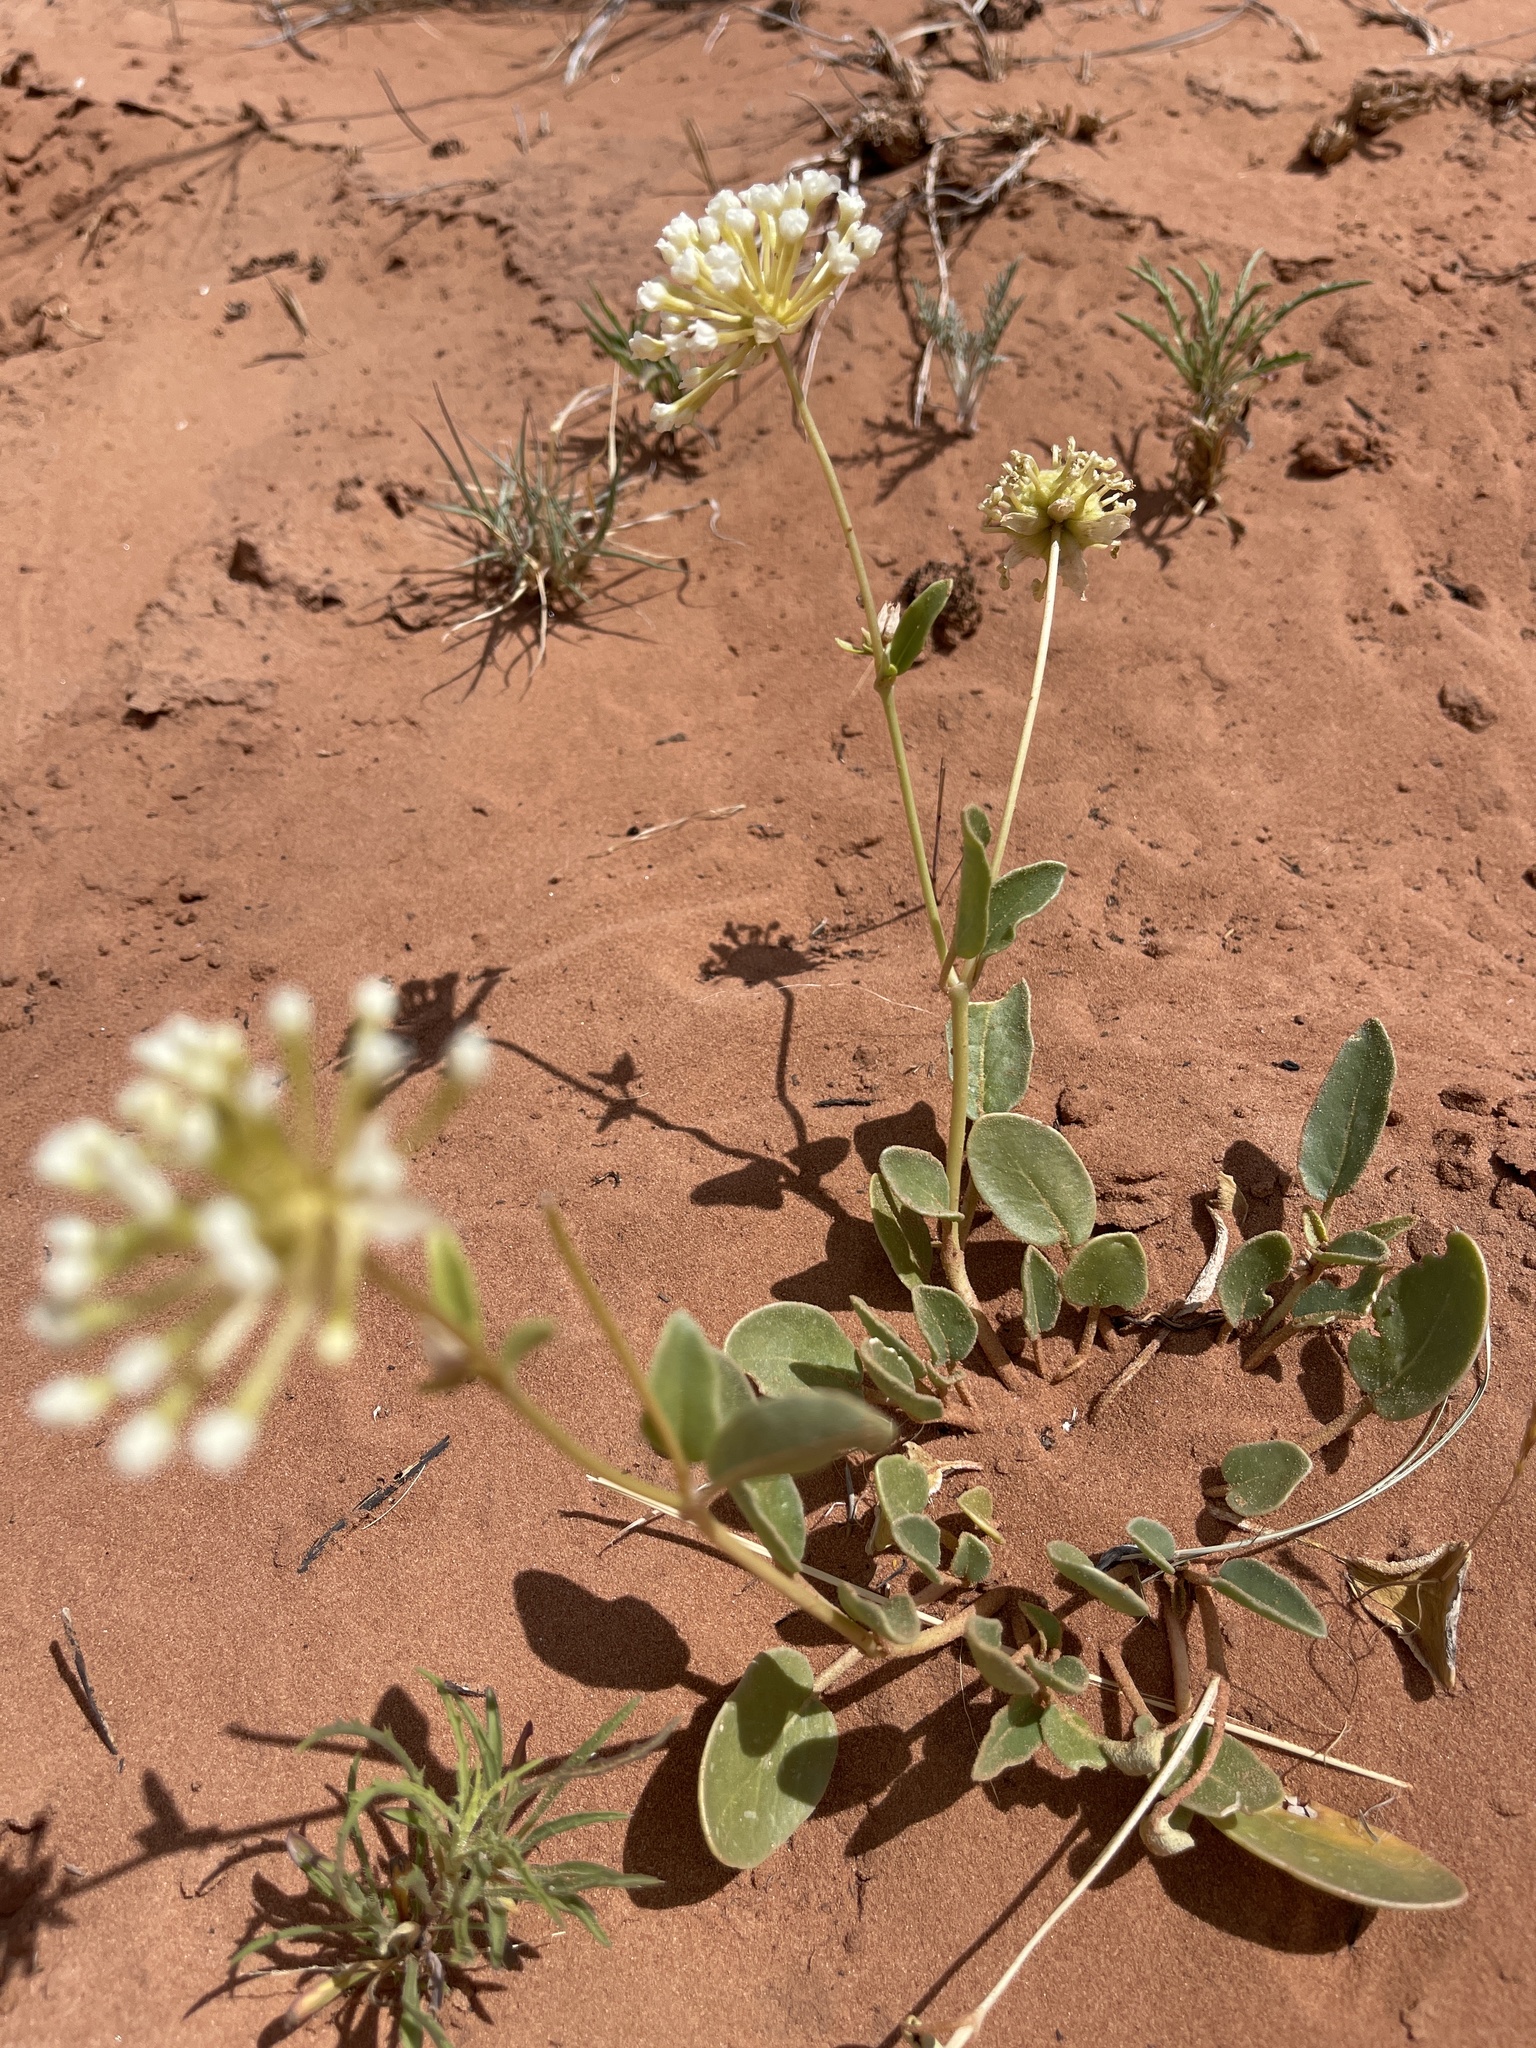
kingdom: Plantae
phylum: Tracheophyta
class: Magnoliopsida
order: Caryophyllales
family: Nyctaginaceae
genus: Abronia
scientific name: Abronia elliptica
